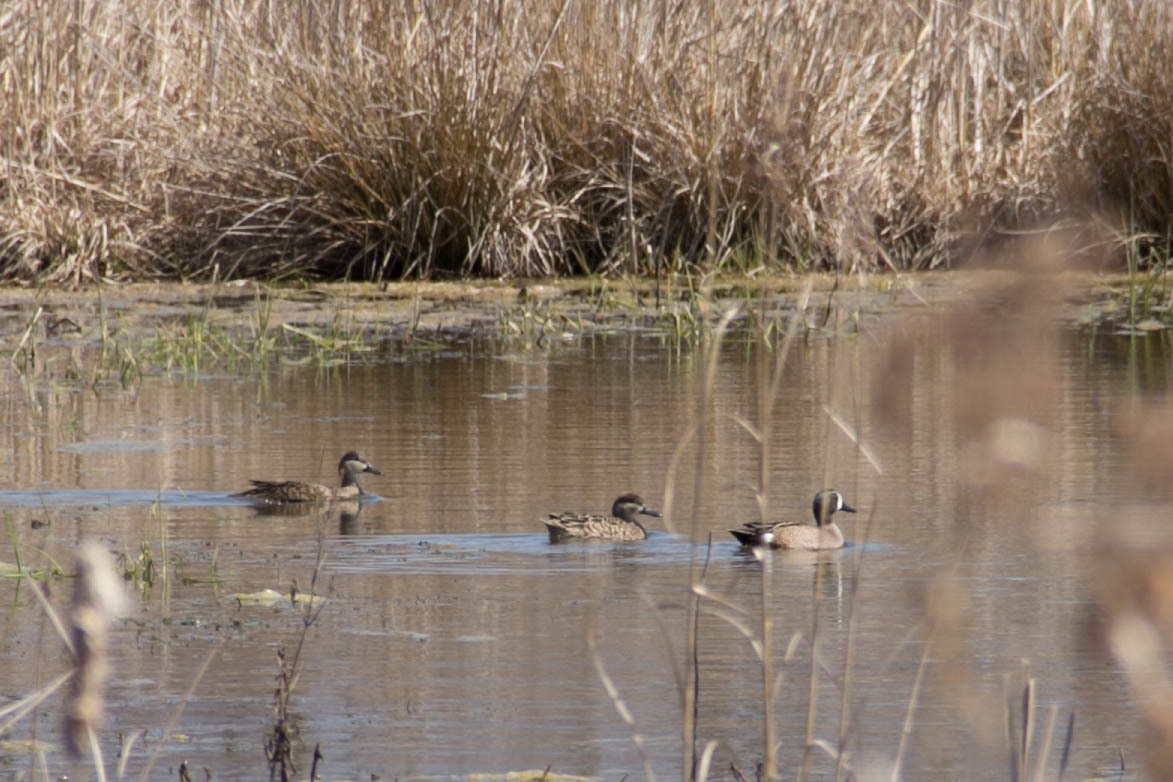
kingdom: Animalia
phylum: Chordata
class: Aves
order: Anseriformes
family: Anatidae
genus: Spatula
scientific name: Spatula discors
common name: Blue-winged teal
